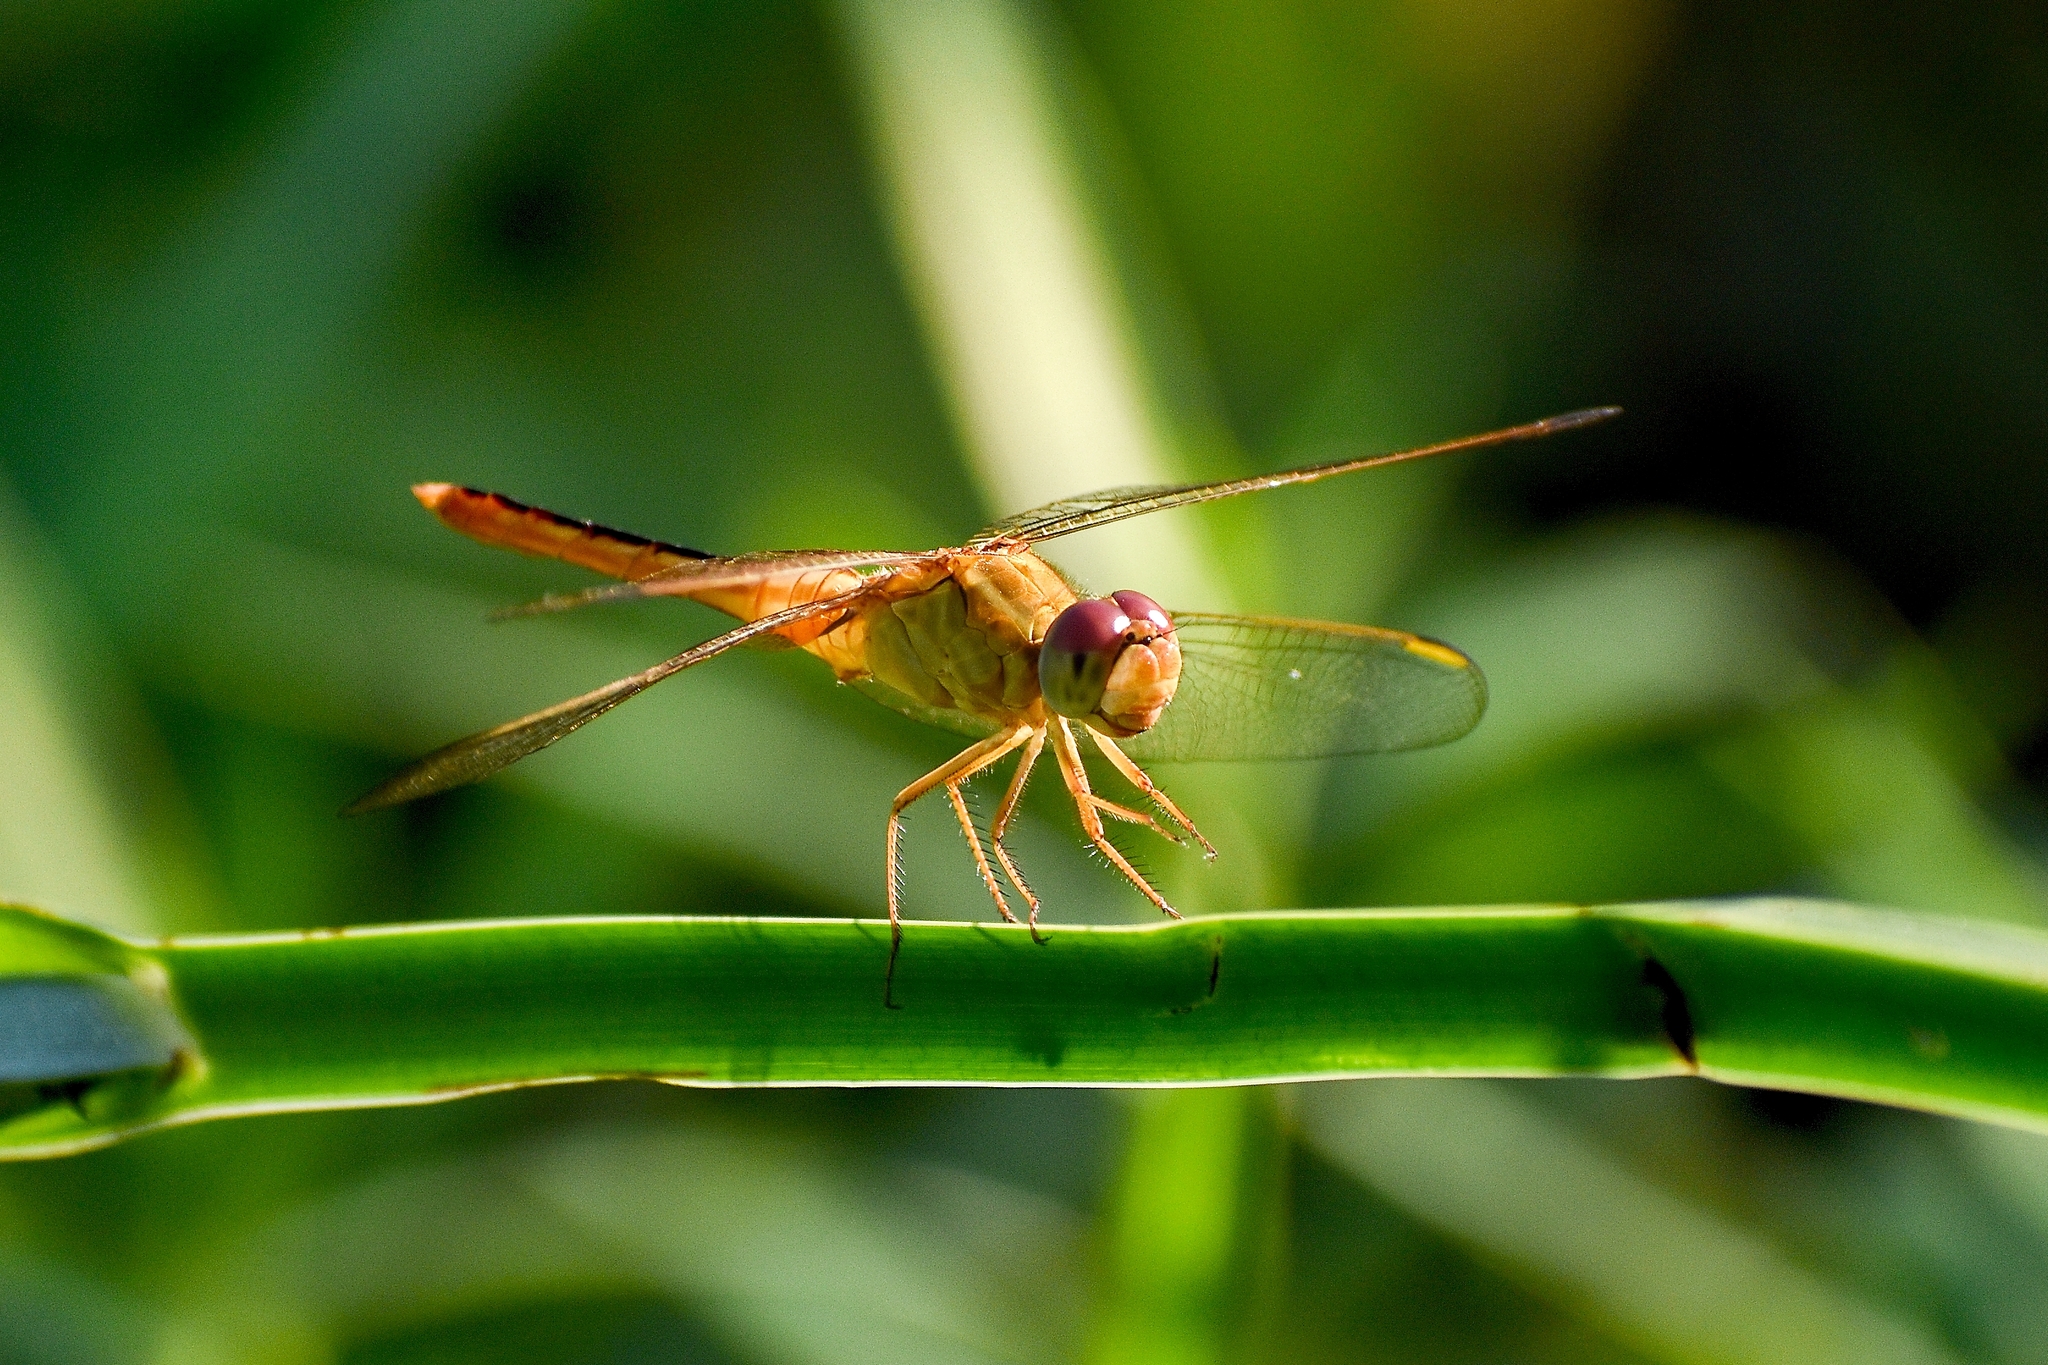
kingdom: Animalia
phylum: Arthropoda
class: Insecta
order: Odonata
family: Libellulidae
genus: Crocothemis
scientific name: Crocothemis servilia
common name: Scarlet skimmer
